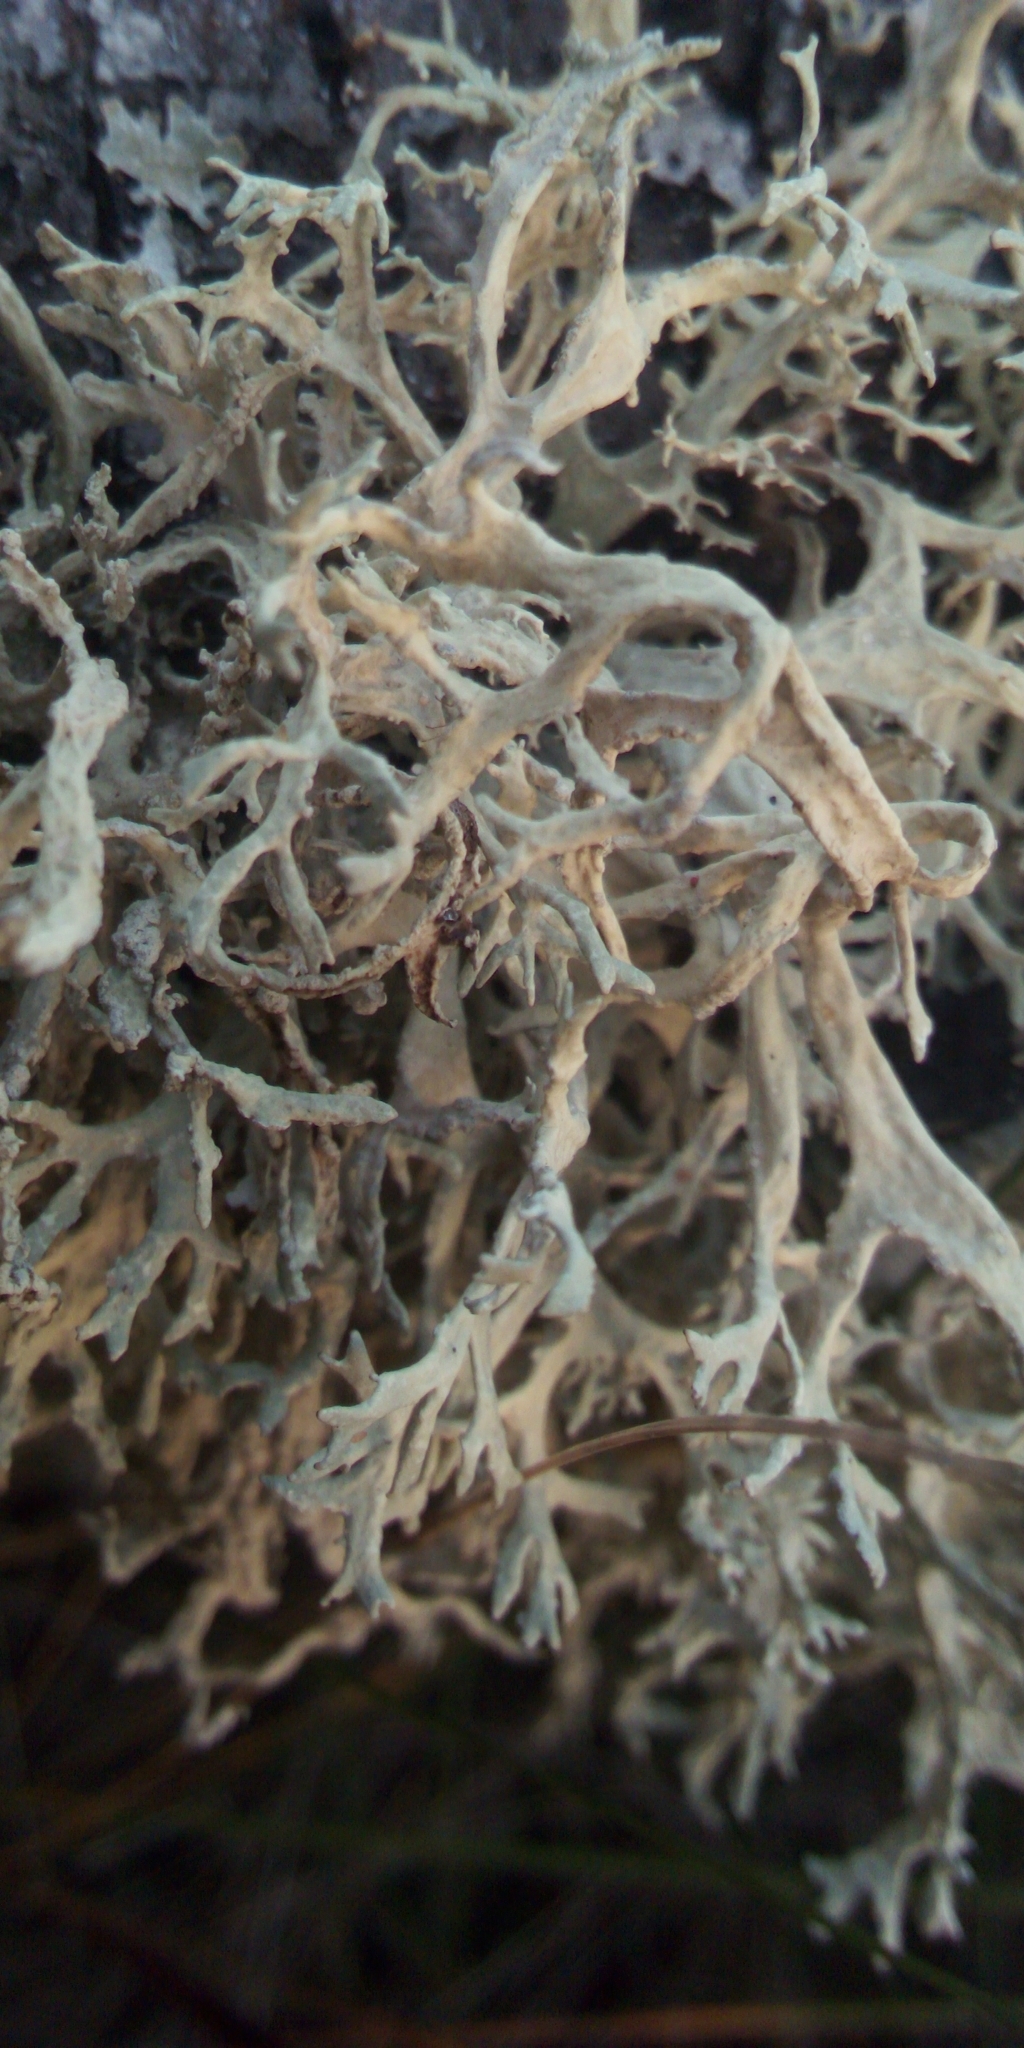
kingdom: Fungi
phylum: Ascomycota
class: Lecanoromycetes
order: Lecanorales
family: Parmeliaceae
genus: Evernia
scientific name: Evernia prunastri
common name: Oak moss
